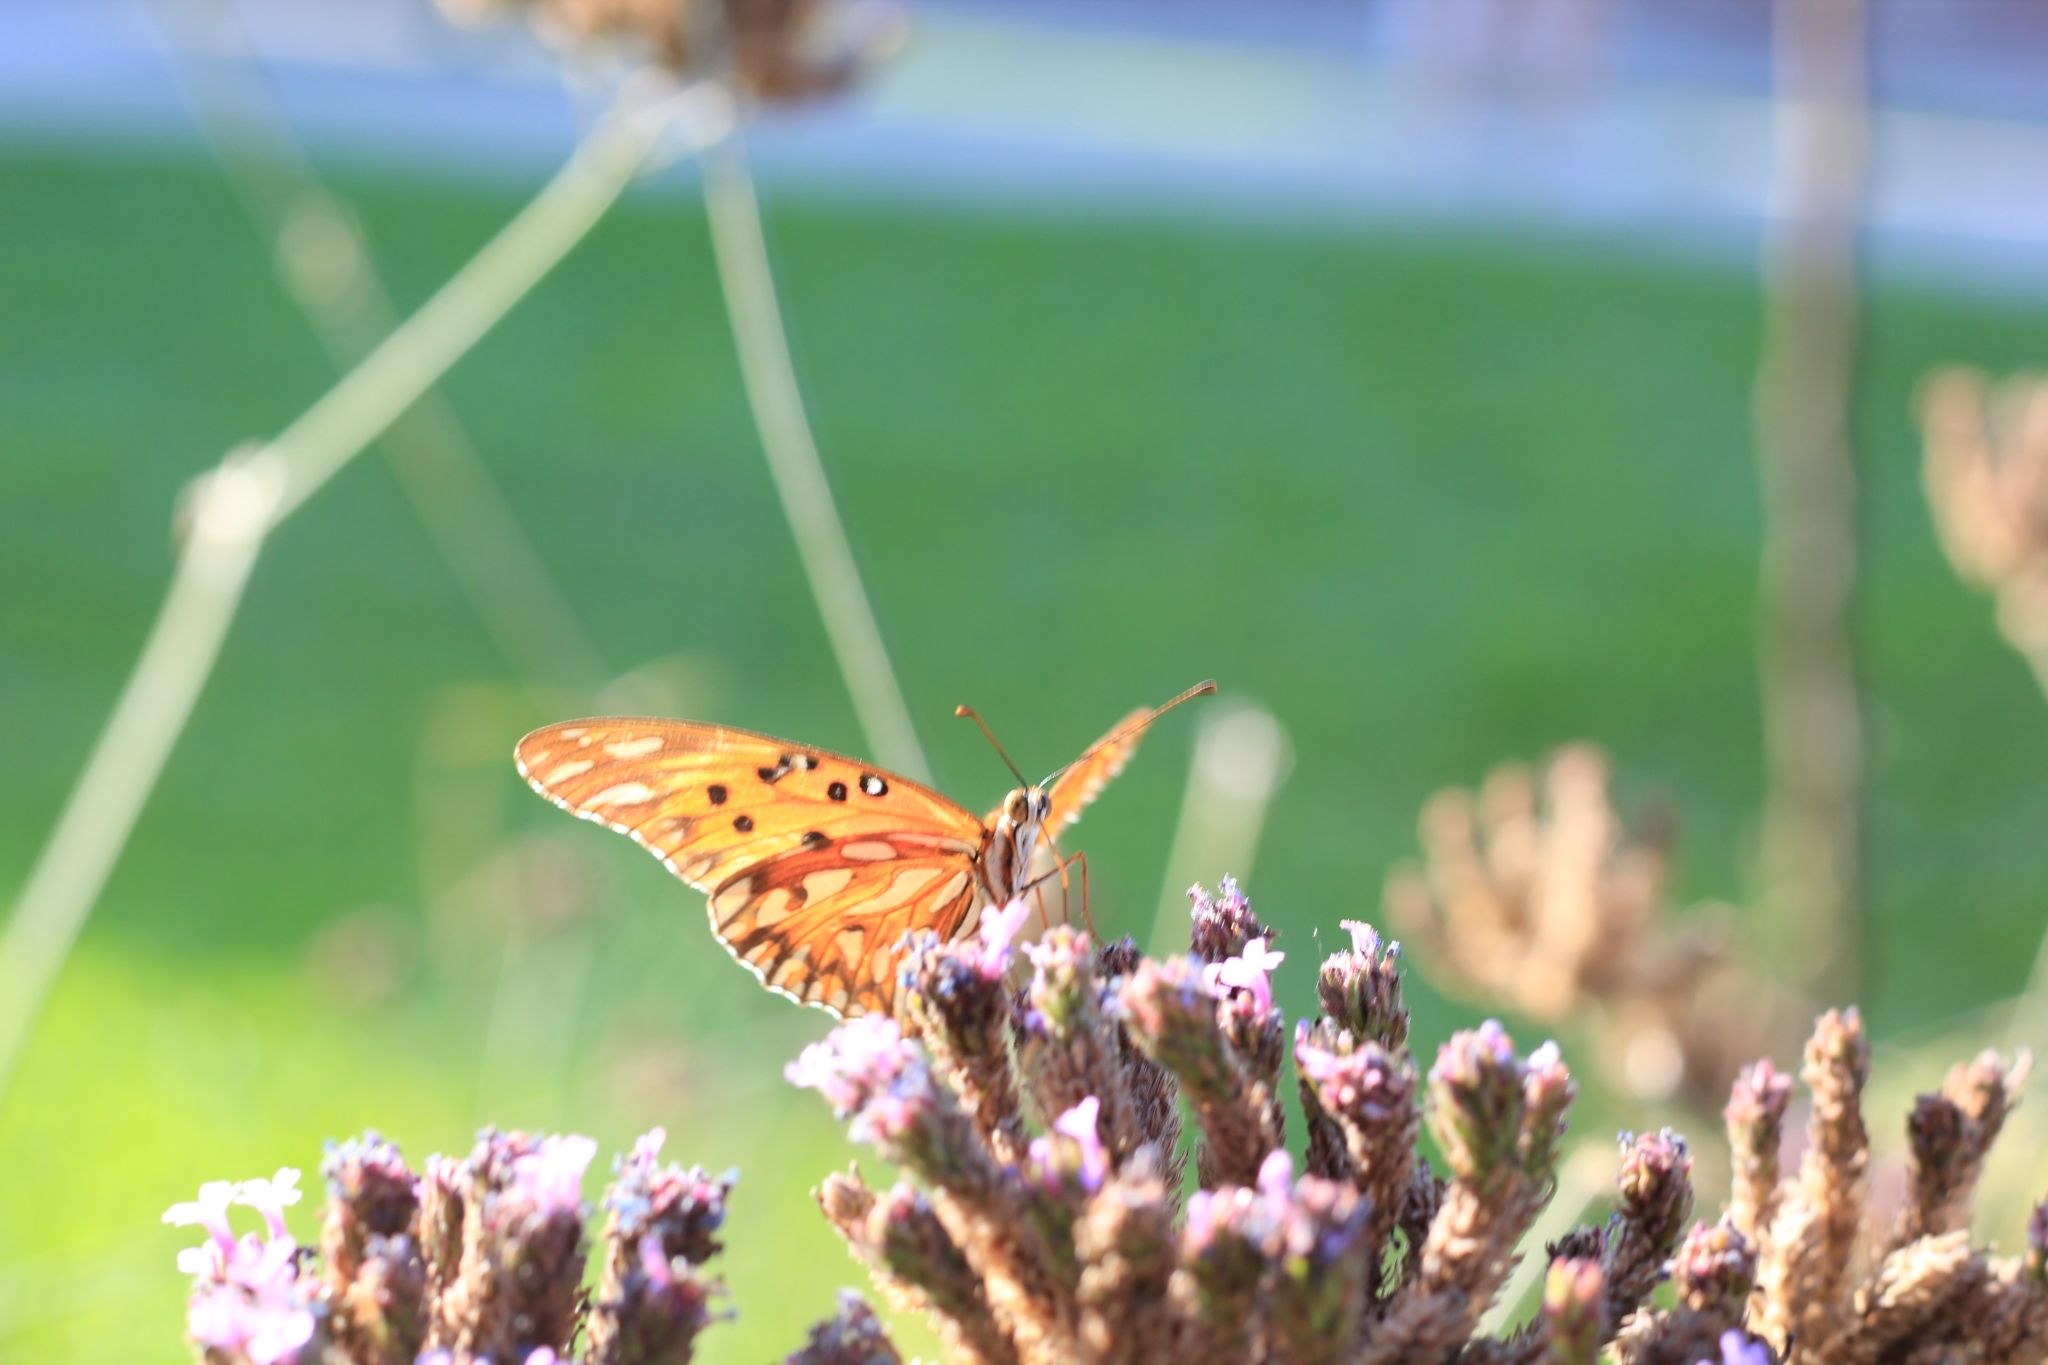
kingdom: Animalia
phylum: Arthropoda
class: Insecta
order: Lepidoptera
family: Nymphalidae
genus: Dione
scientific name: Dione vanillae
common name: Gulf fritillary
